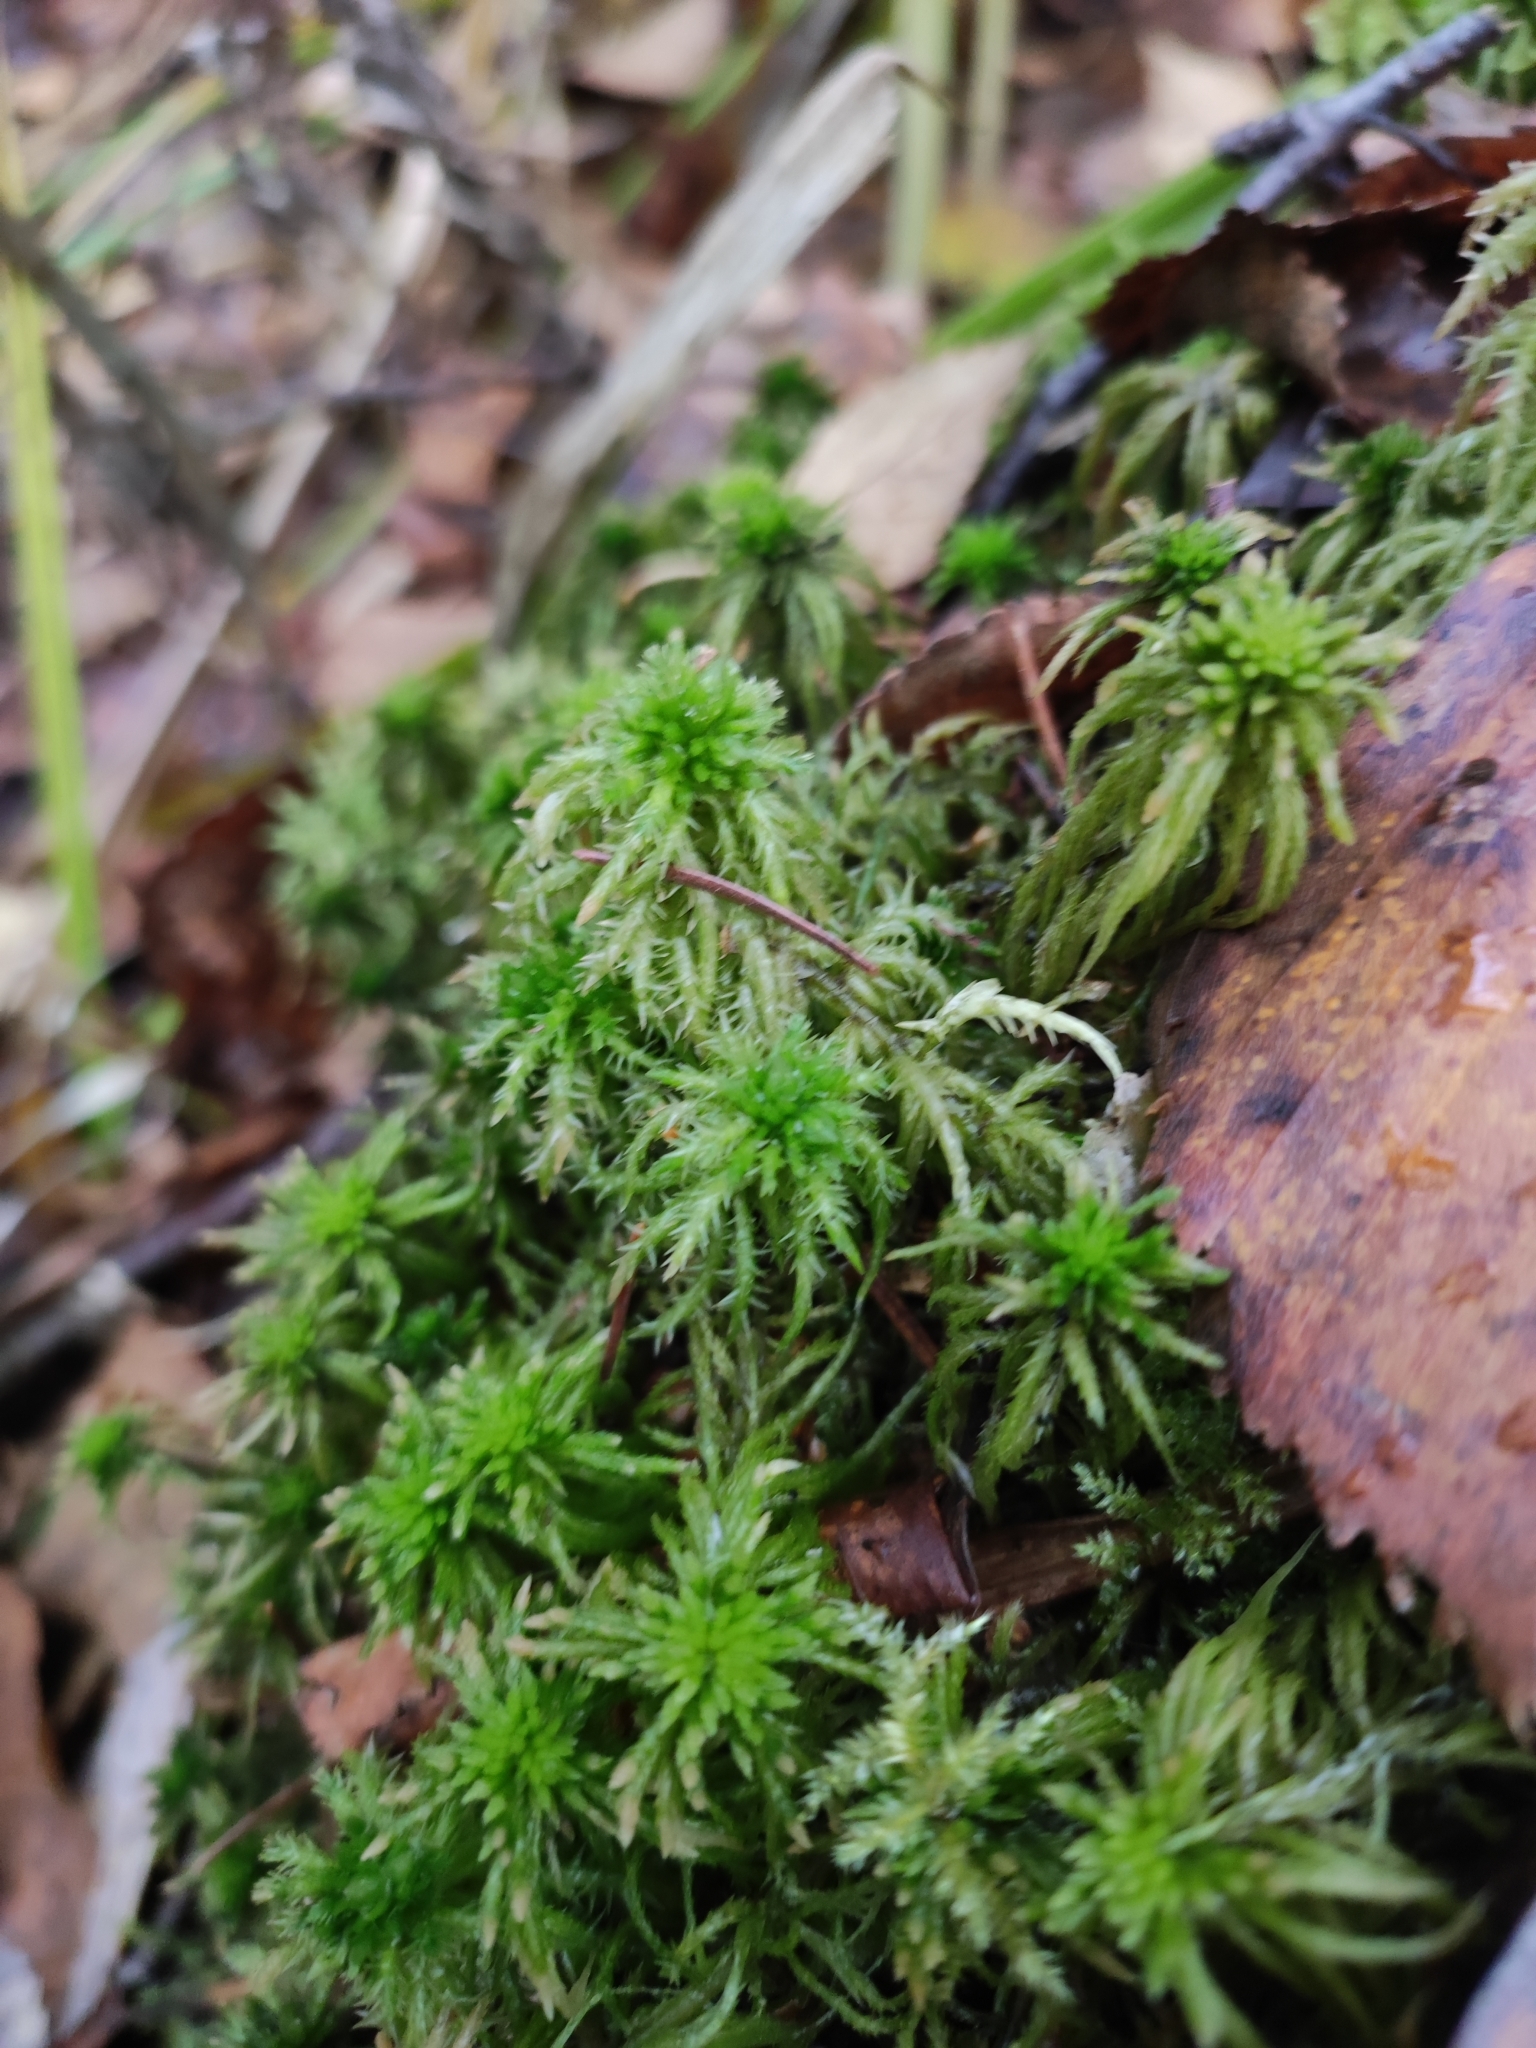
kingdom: Plantae
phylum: Bryophyta
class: Sphagnopsida
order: Sphagnales
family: Sphagnaceae
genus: Sphagnum
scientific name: Sphagnum squarrosum
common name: Shaggy peat moss
